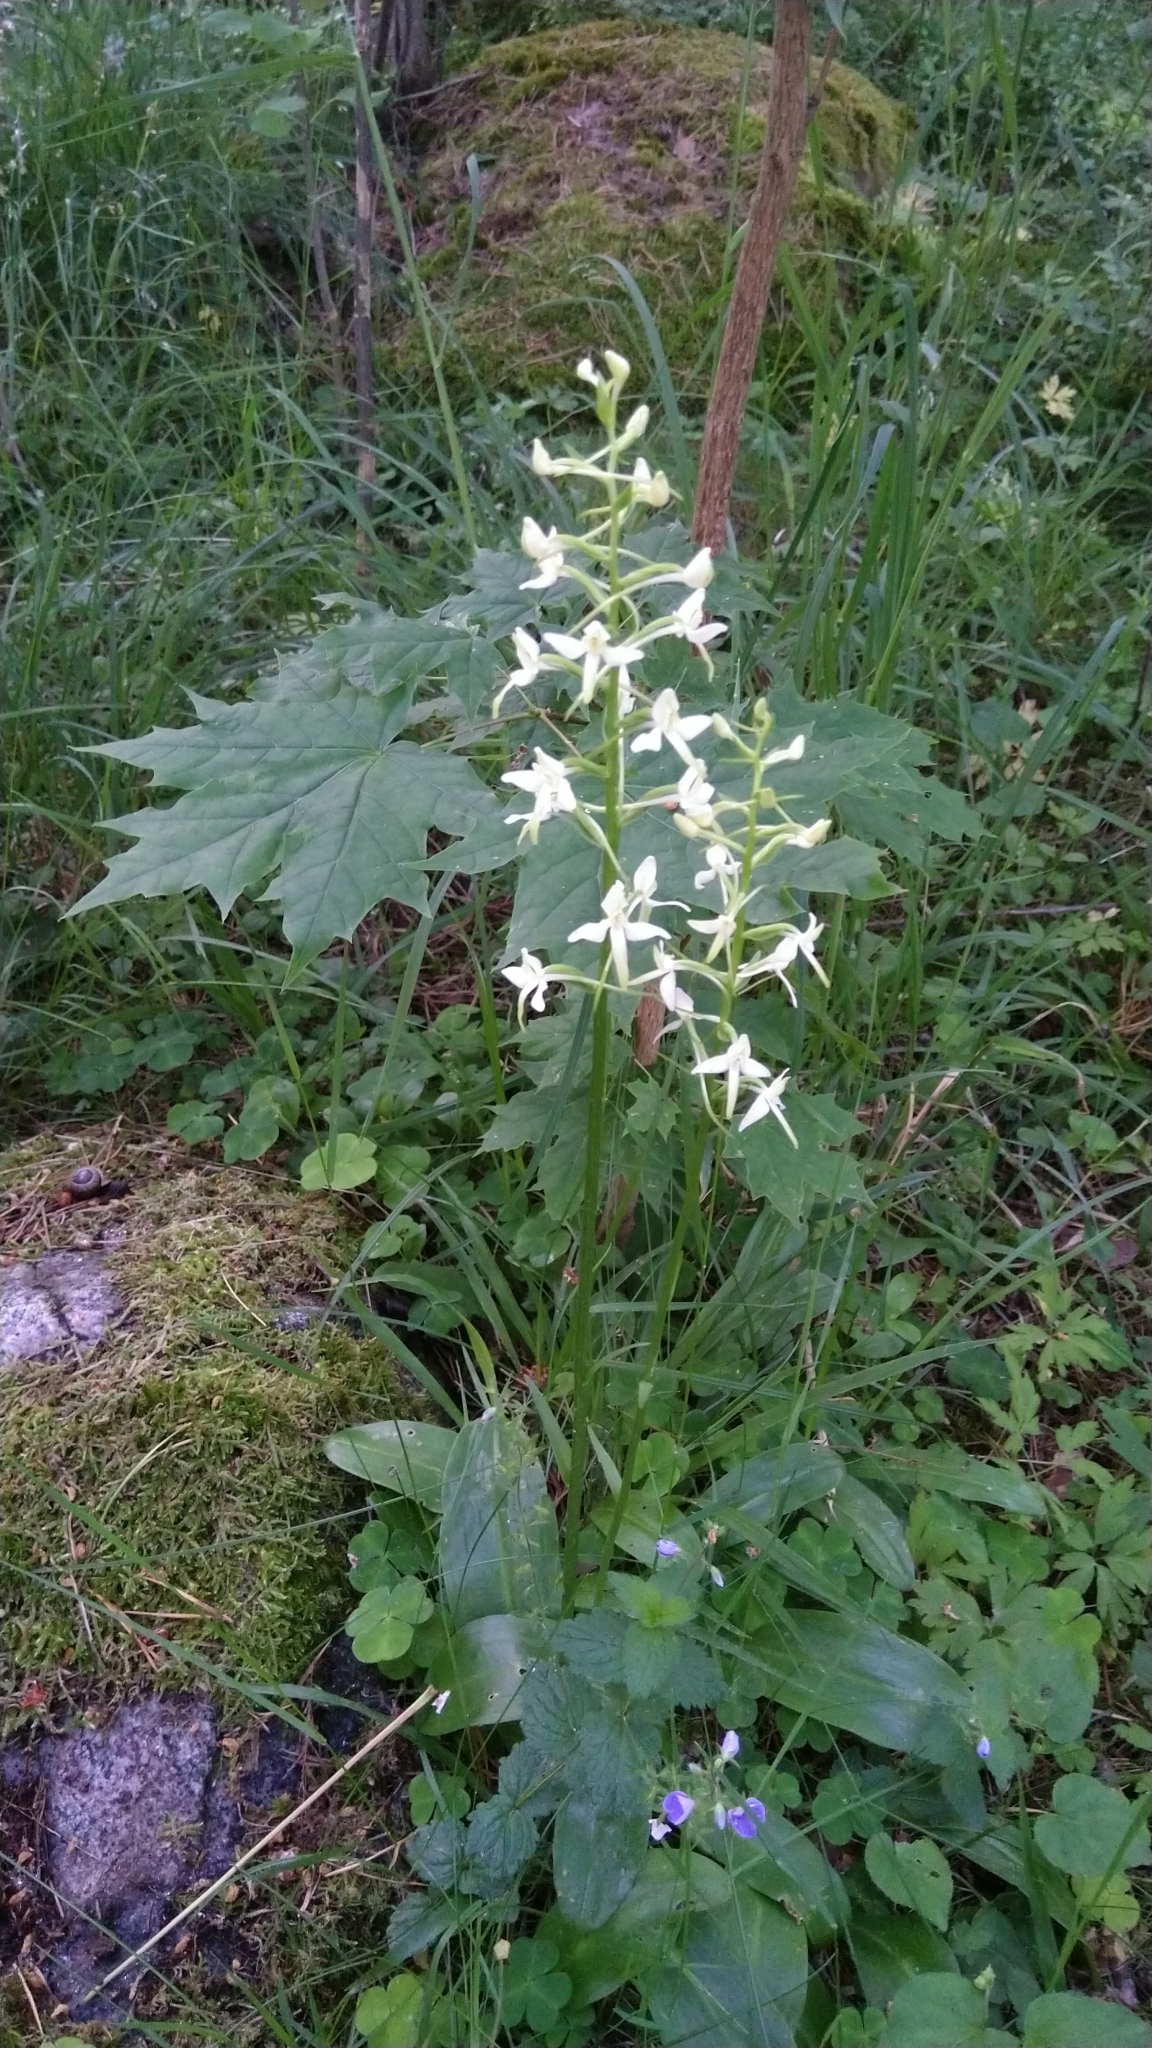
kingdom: Plantae
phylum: Tracheophyta
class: Liliopsida
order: Asparagales
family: Orchidaceae
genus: Platanthera
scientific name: Platanthera bifolia
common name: Lesser butterfly-orchid
